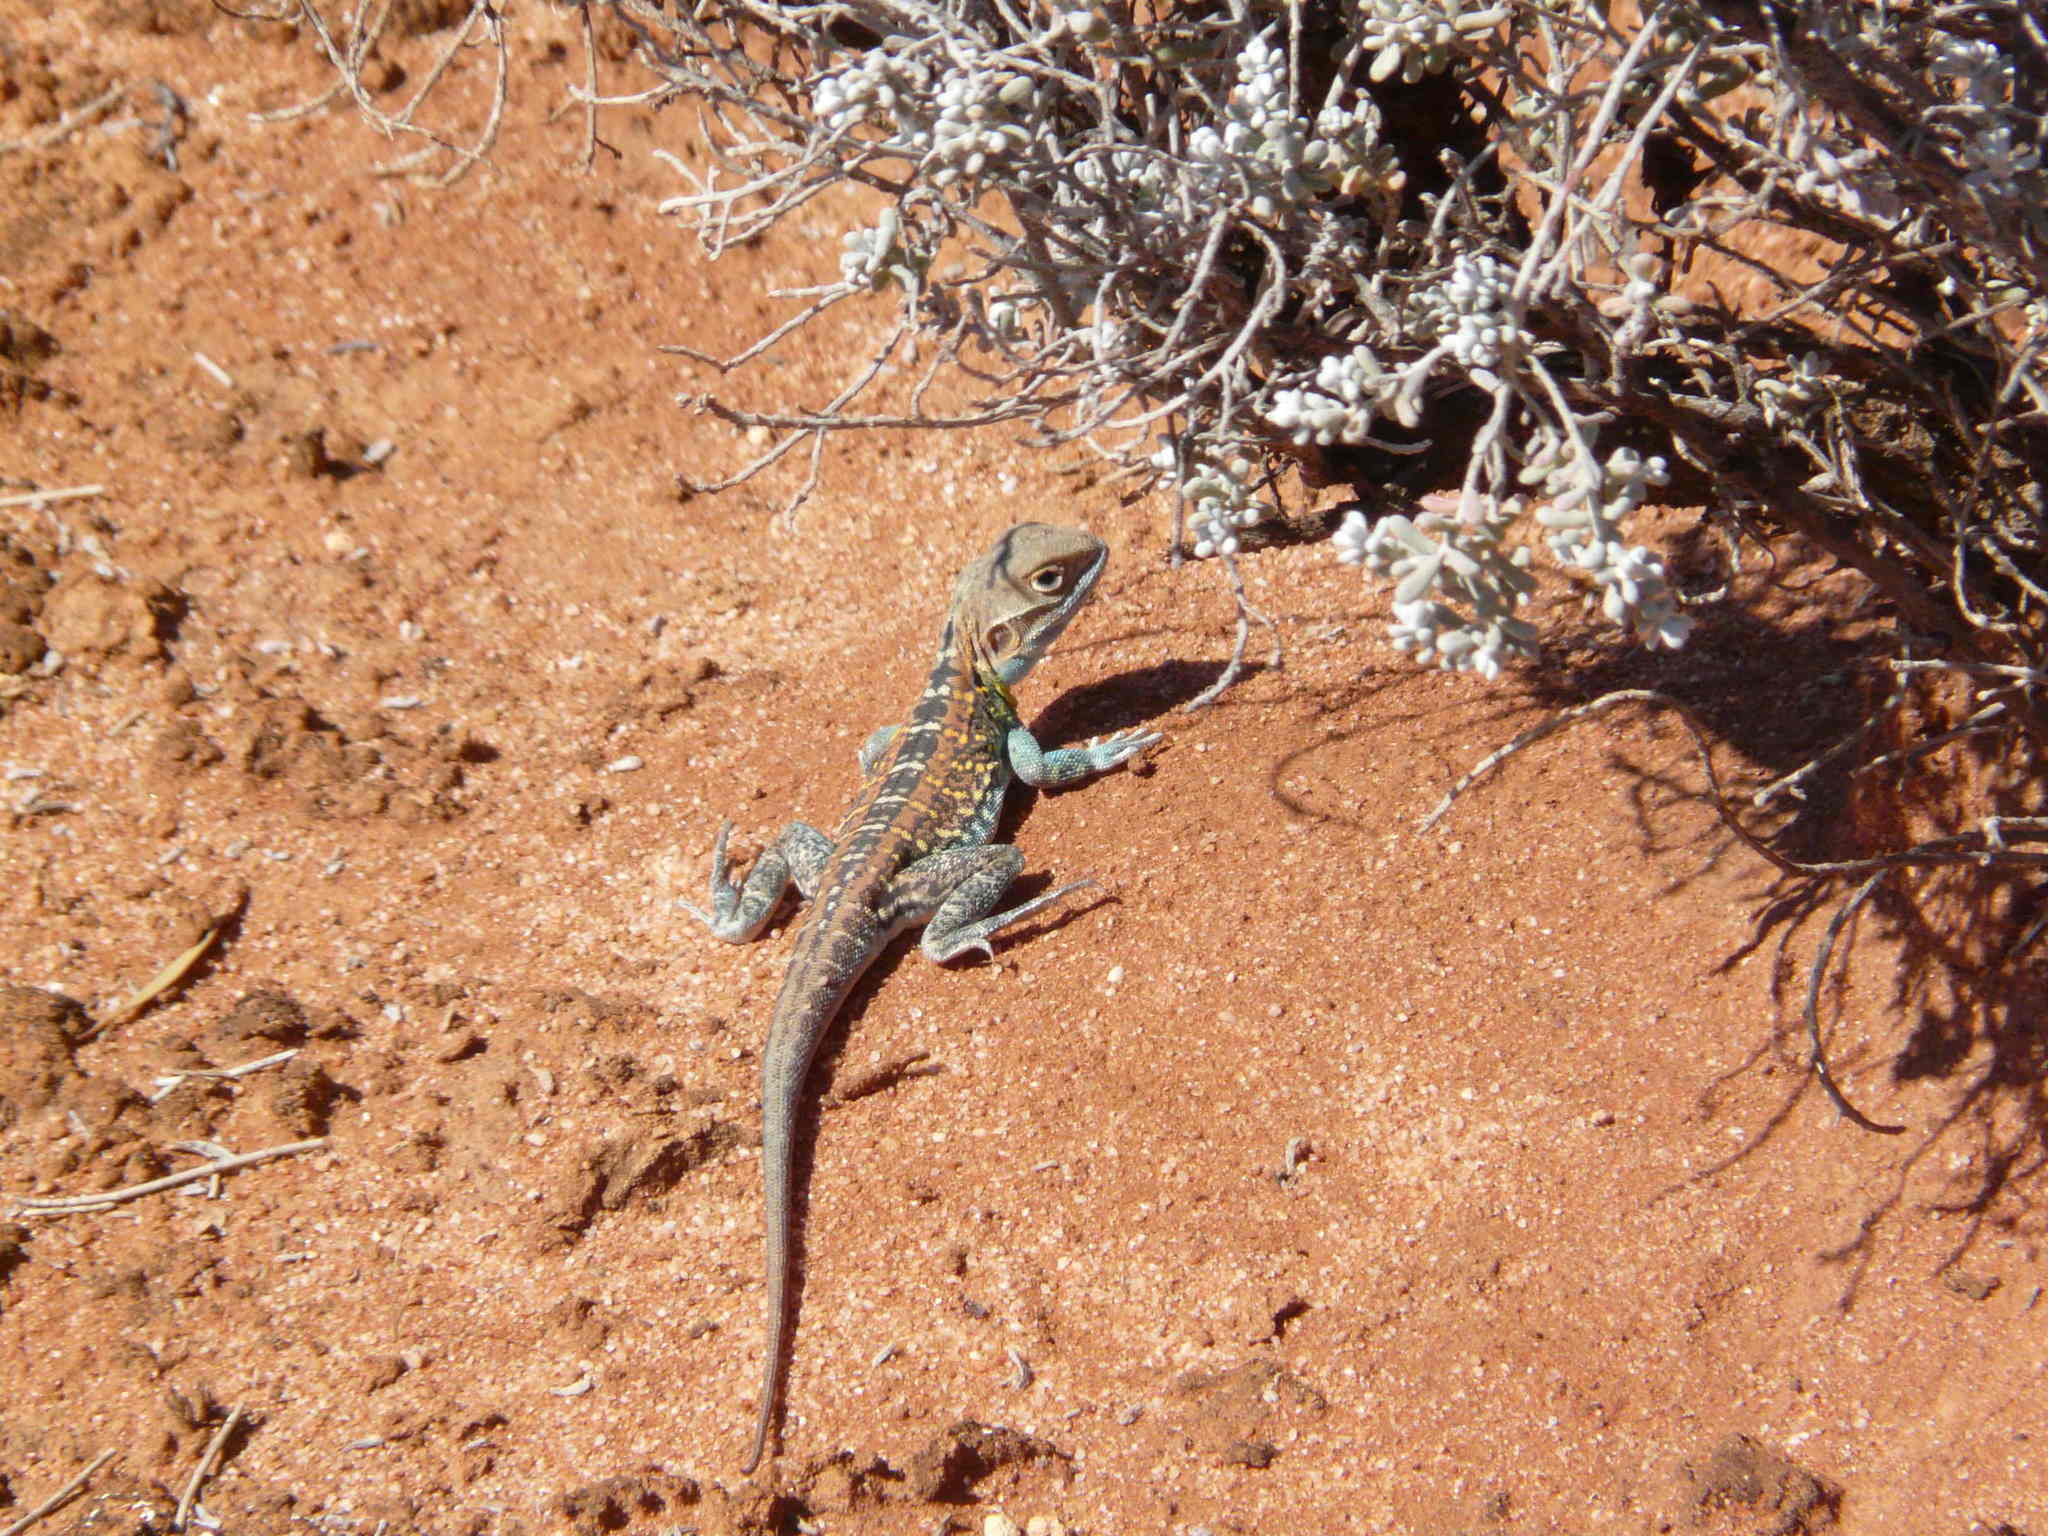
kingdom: Animalia
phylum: Chordata
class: Squamata
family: Agamidae
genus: Ctenophorus
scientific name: Ctenophorus pictus
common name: Painted dragon
